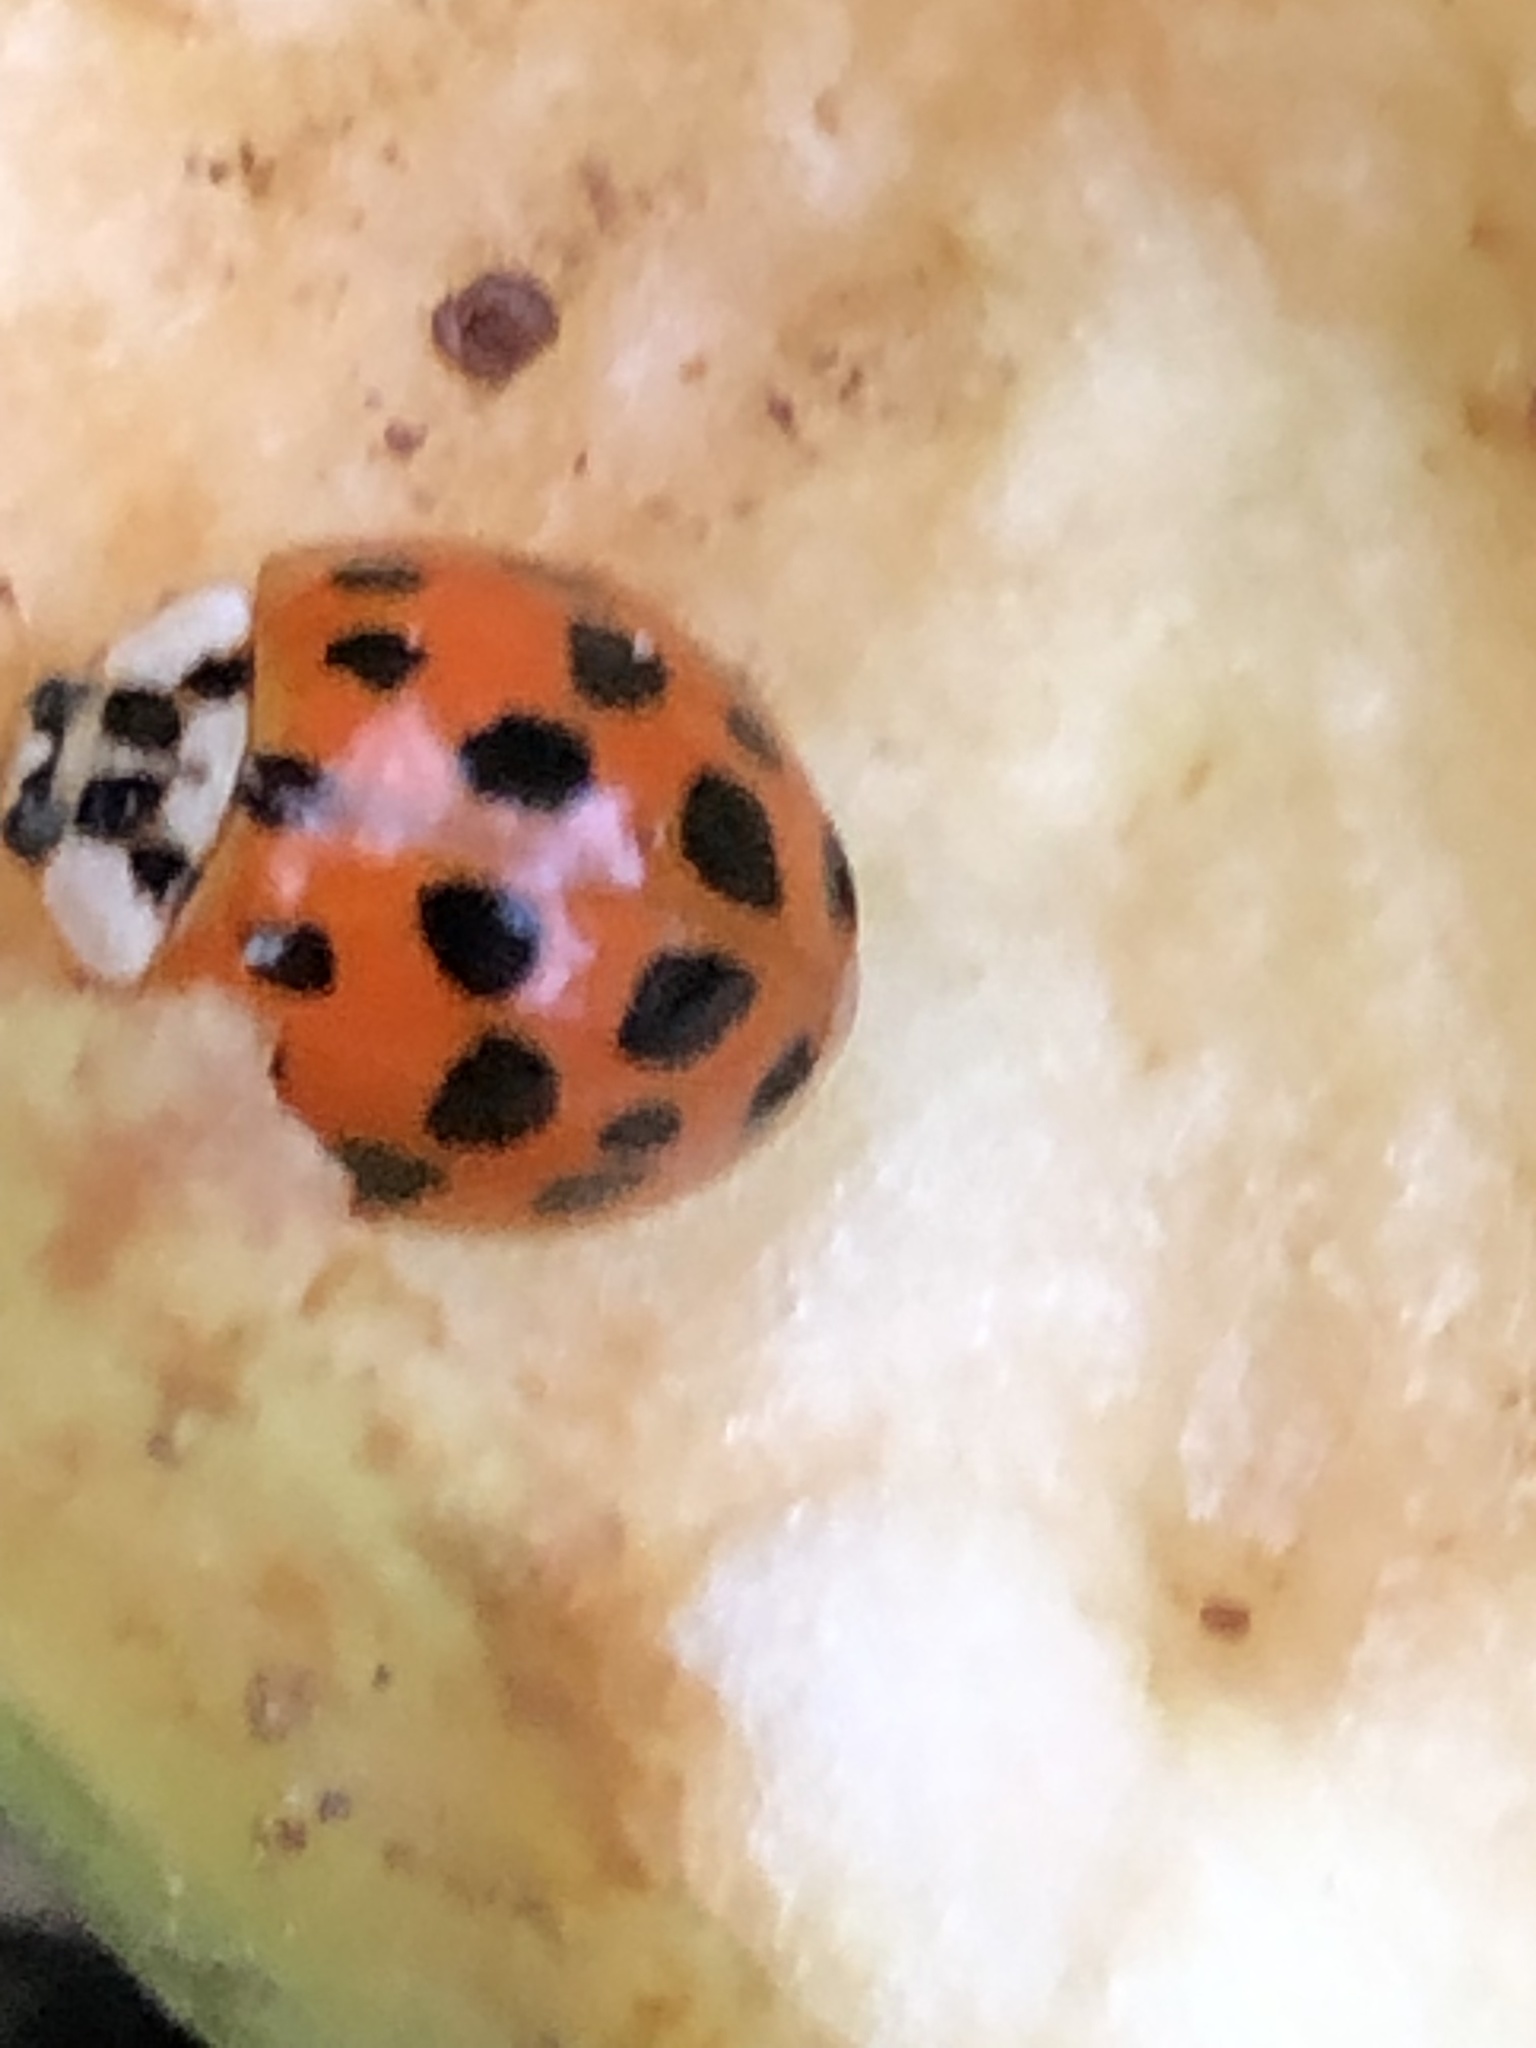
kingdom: Animalia
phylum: Arthropoda
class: Insecta
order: Coleoptera
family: Coccinellidae
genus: Harmonia
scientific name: Harmonia axyridis
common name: Harlequin ladybird
